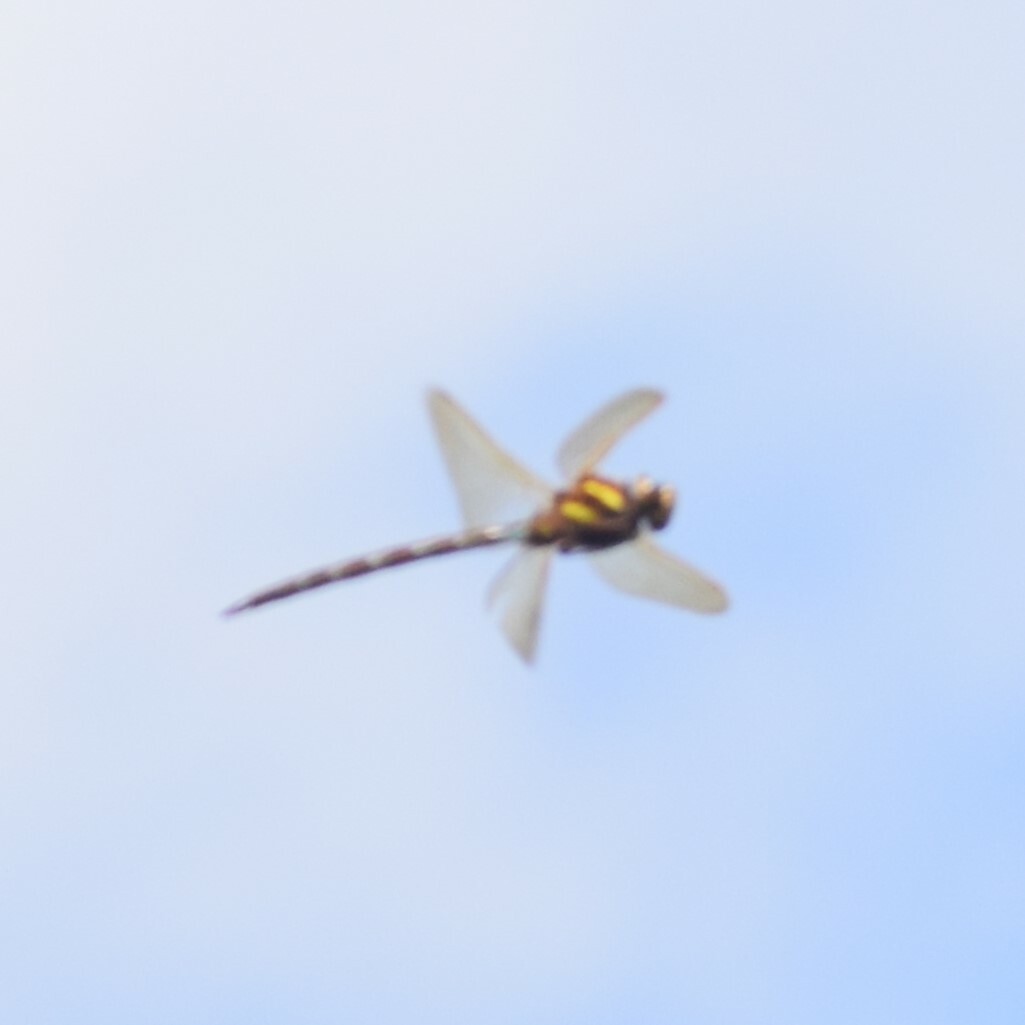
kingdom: Animalia
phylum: Arthropoda
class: Insecta
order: Odonata
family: Aeshnidae
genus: Aeshna
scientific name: Aeshna grandis
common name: Brown hawker
